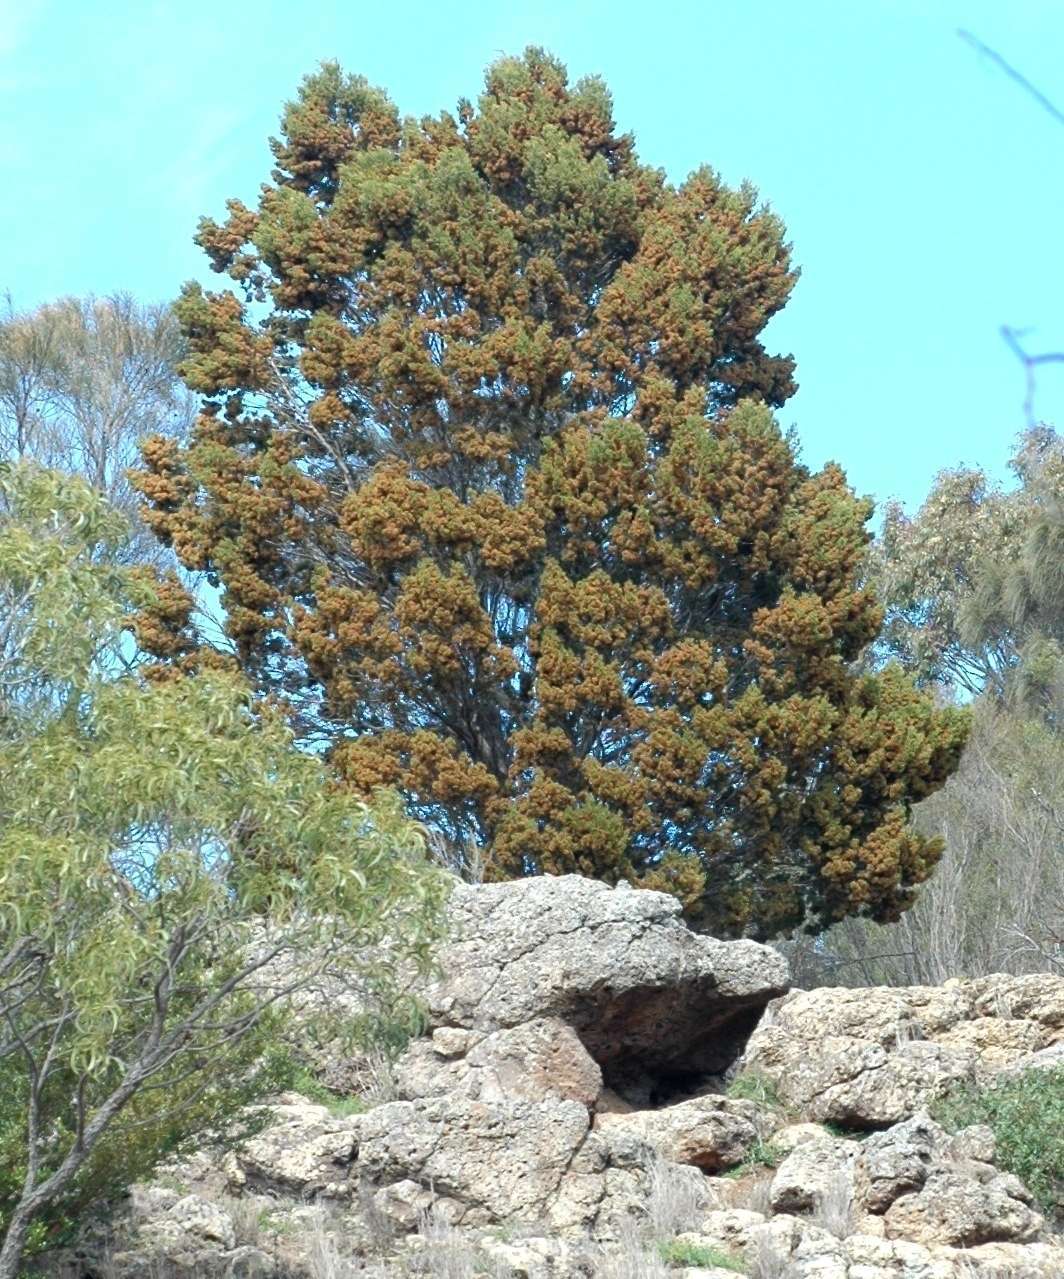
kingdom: Plantae
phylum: Tracheophyta
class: Pinopsida
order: Pinales
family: Cupressaceae
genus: Callitris
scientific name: Callitris columellaris
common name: White cypress-pine
